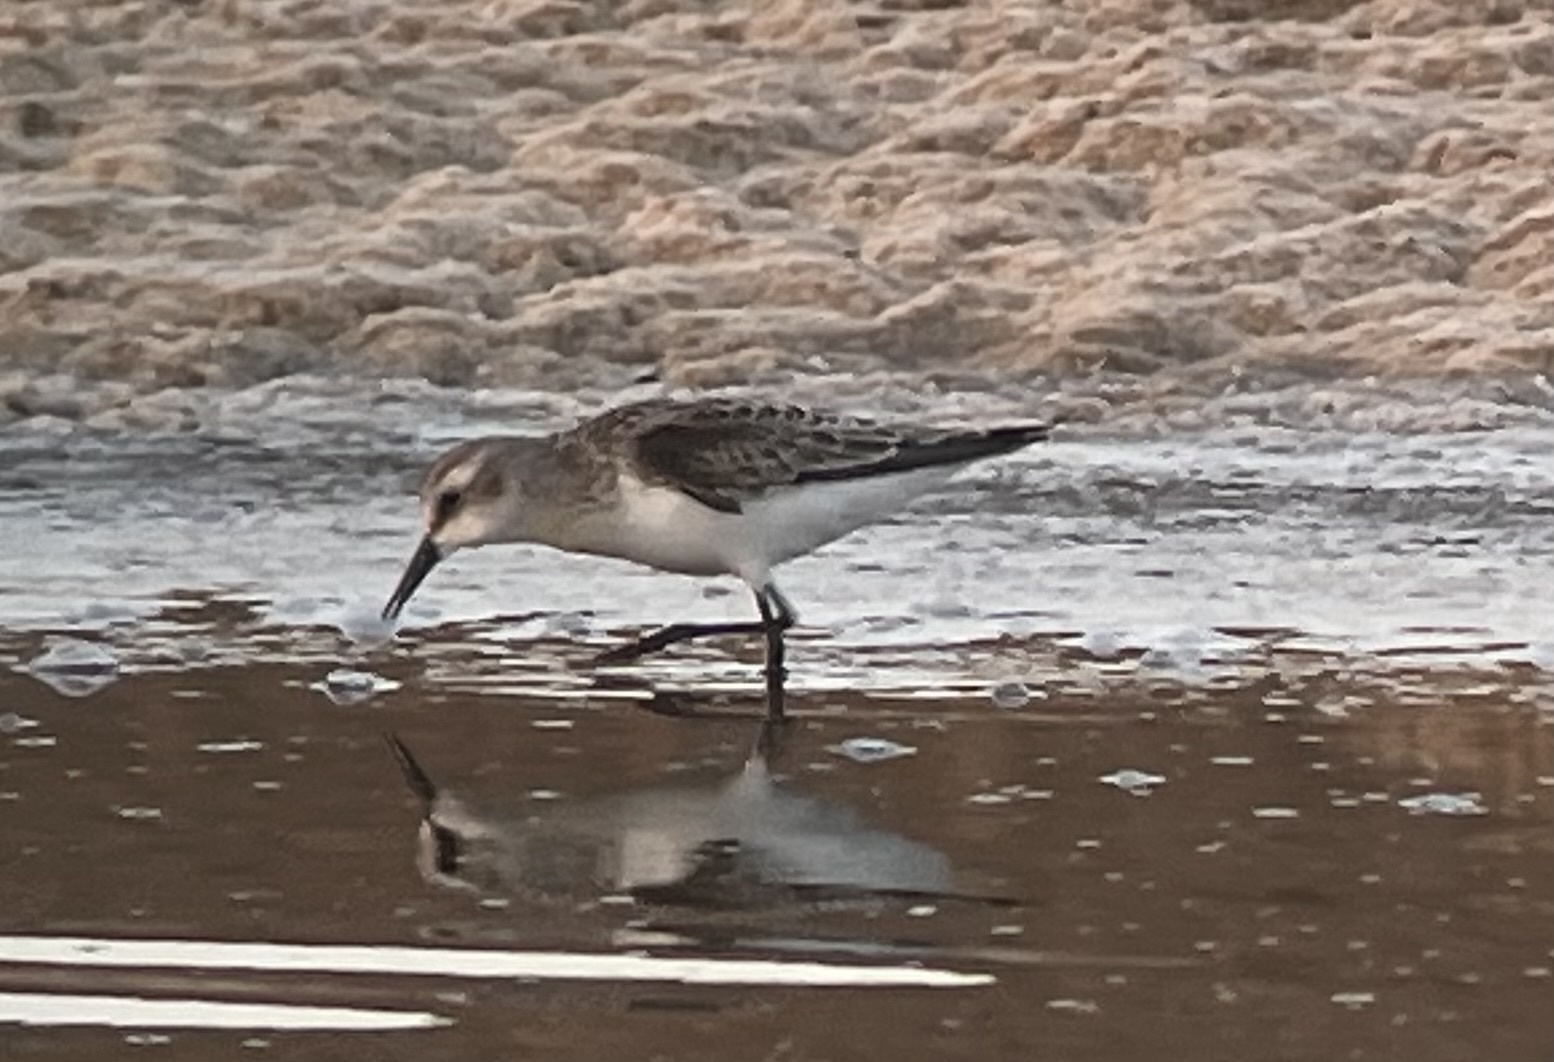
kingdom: Animalia
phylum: Chordata
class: Aves
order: Charadriiformes
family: Scolopacidae
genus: Calidris
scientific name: Calidris minuta
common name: Little stint
